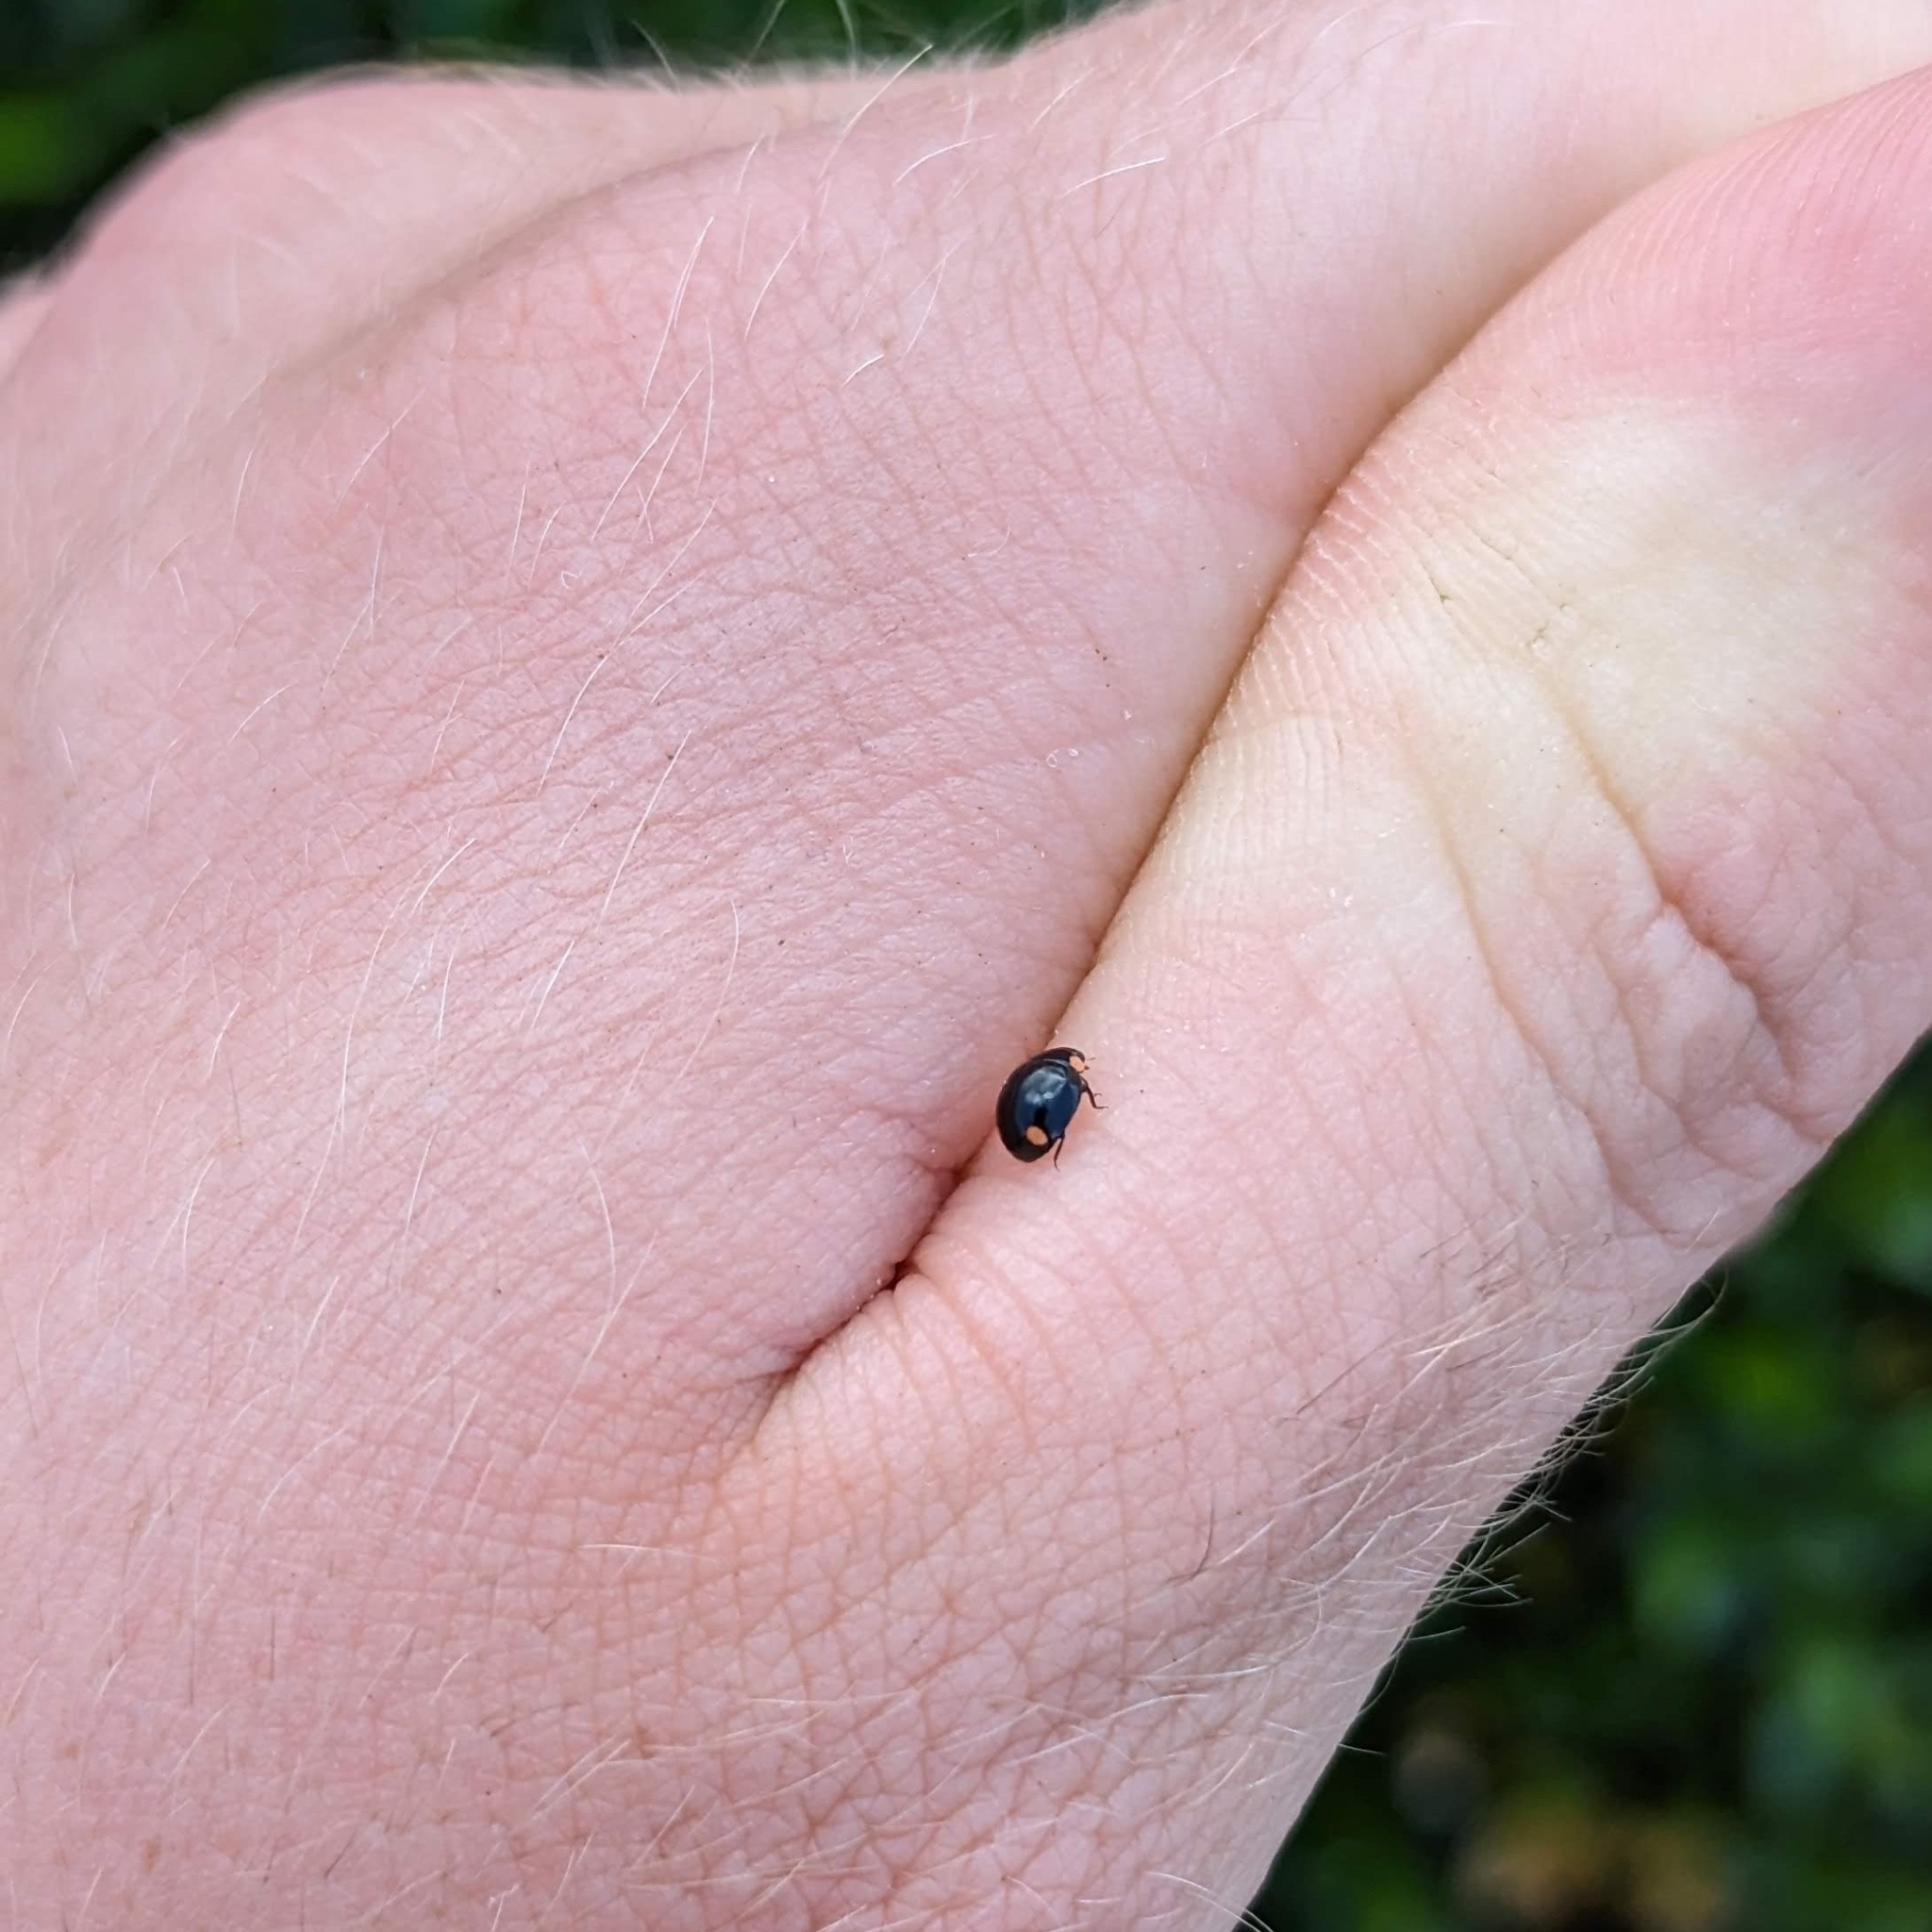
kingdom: Animalia
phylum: Arthropoda
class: Insecta
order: Coleoptera
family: Coccinellidae
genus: Hyperaspis
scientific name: Hyperaspis bigeminata
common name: Bigeminate sigil lady beetle
